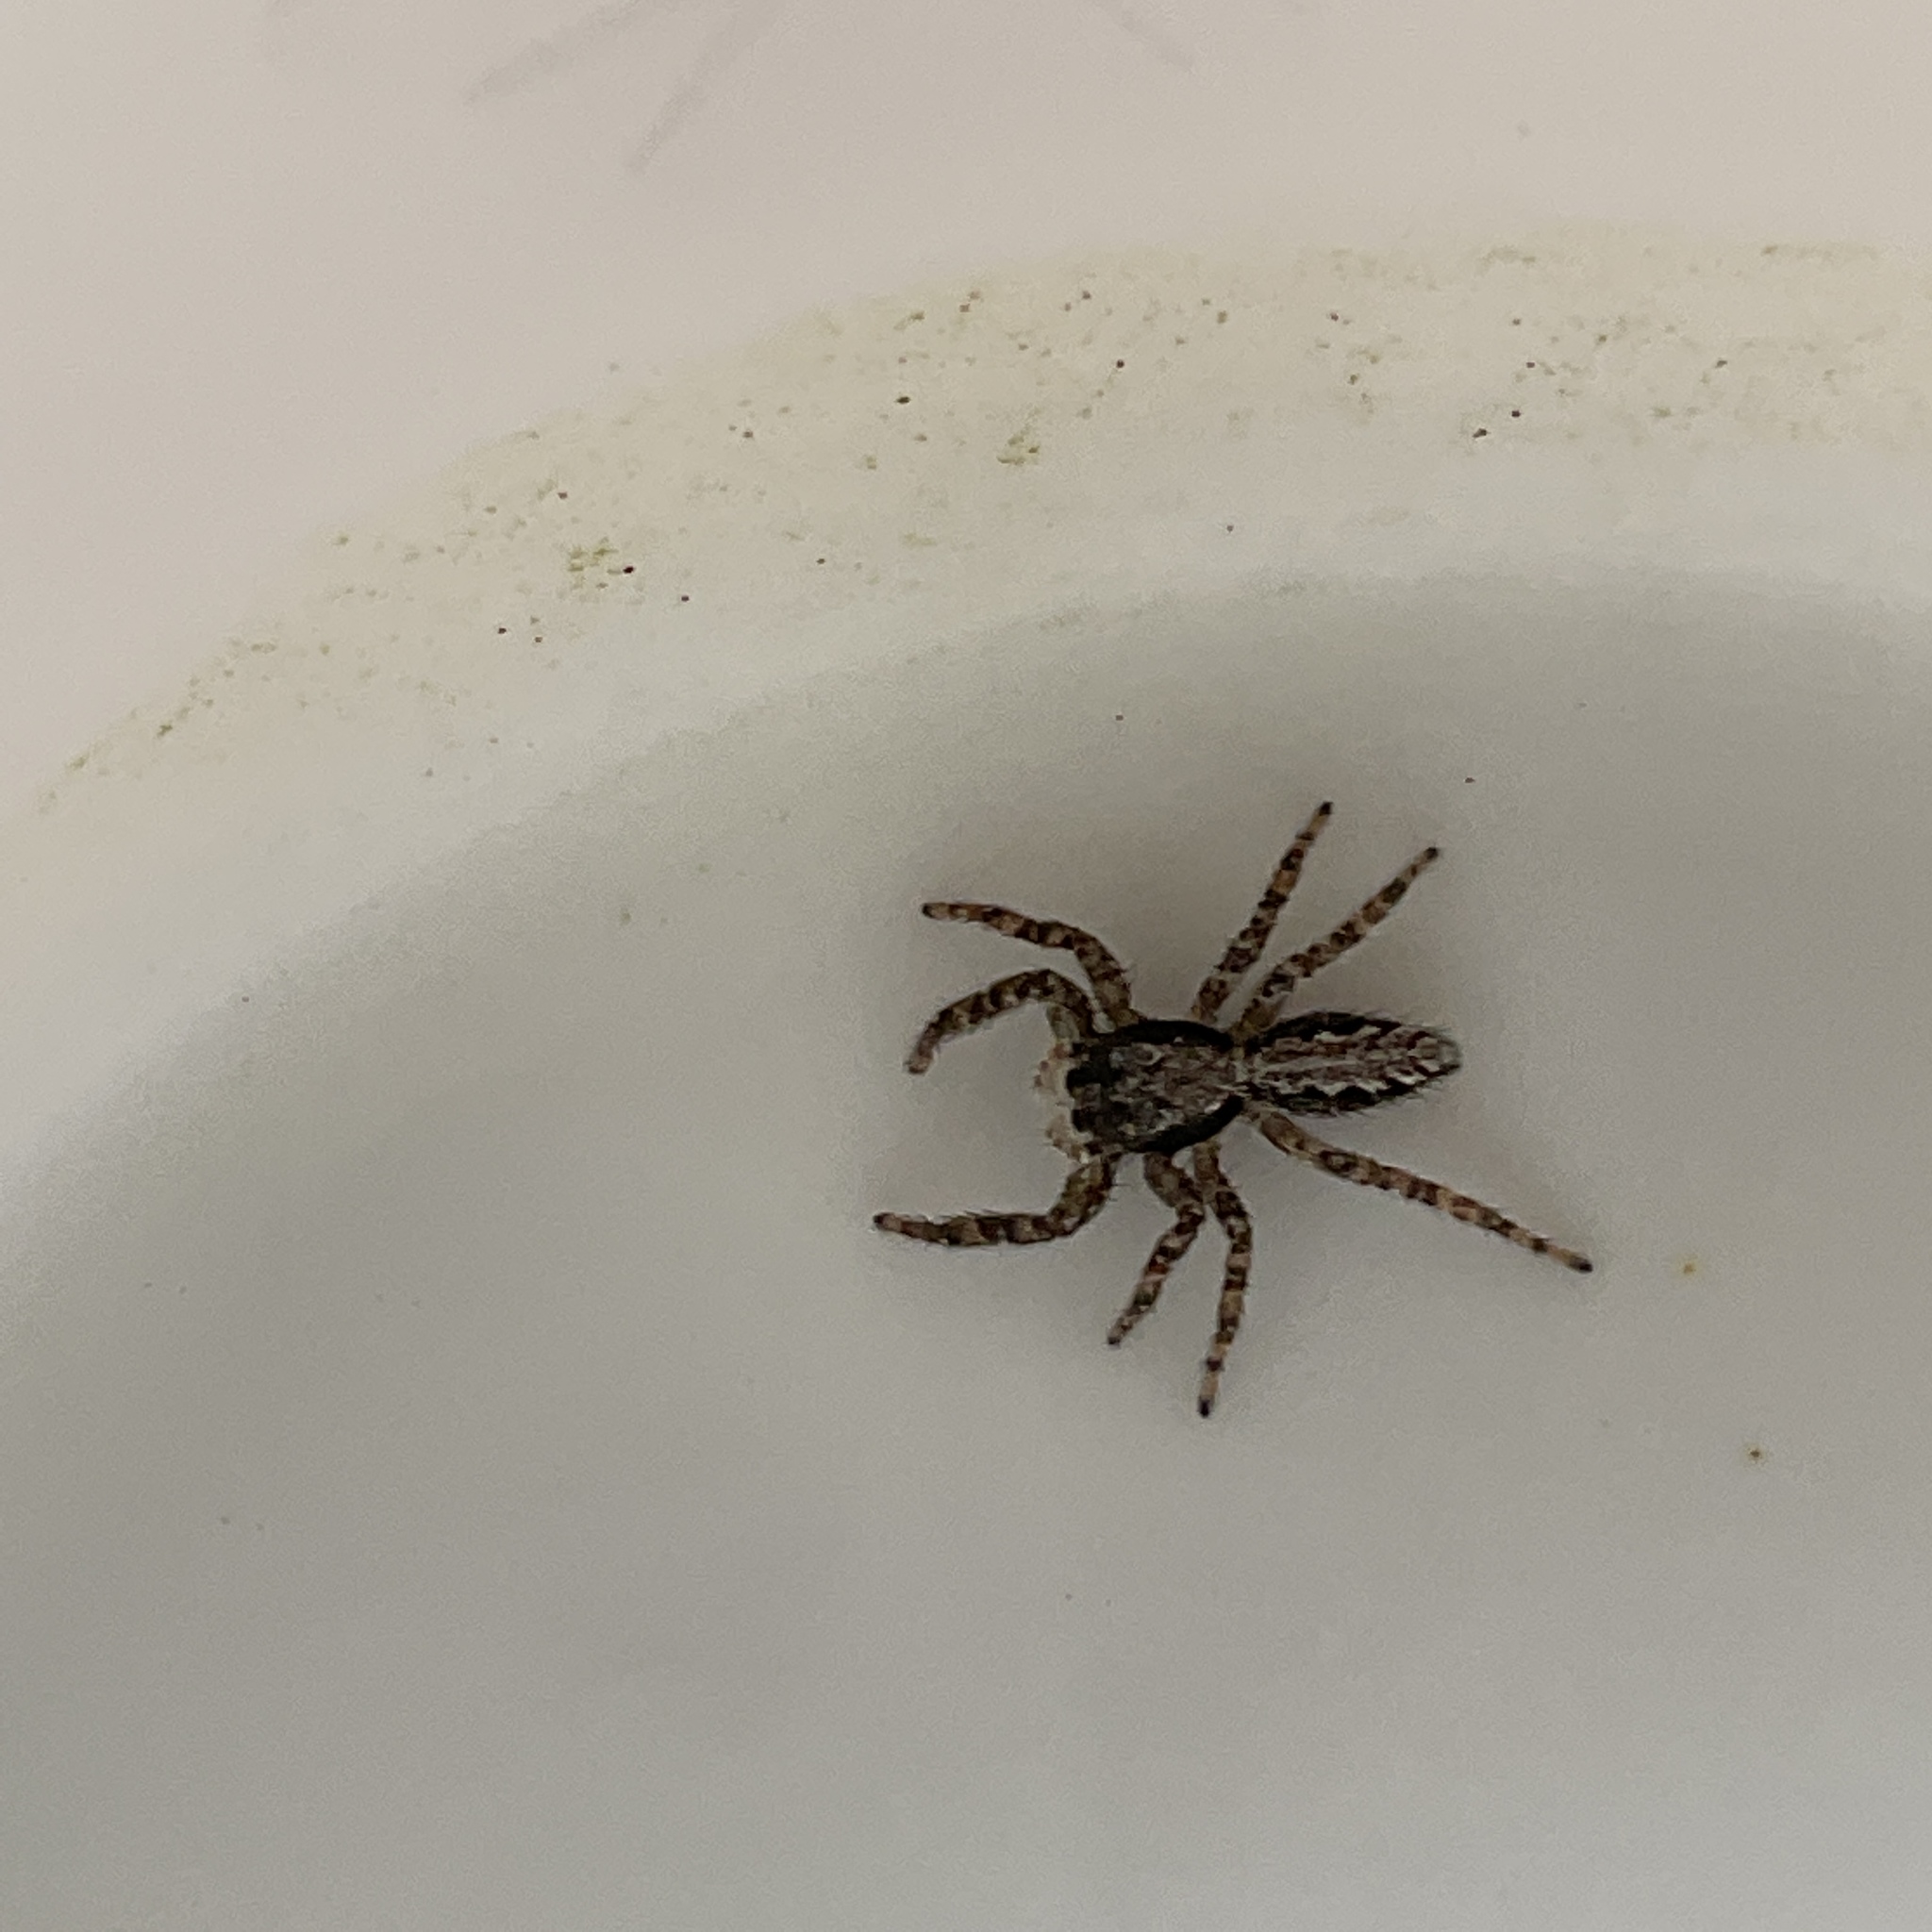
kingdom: Animalia
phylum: Arthropoda
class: Arachnida
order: Araneae
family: Salticidae
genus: Platycryptus
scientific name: Platycryptus californicus
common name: Jumping spiders
